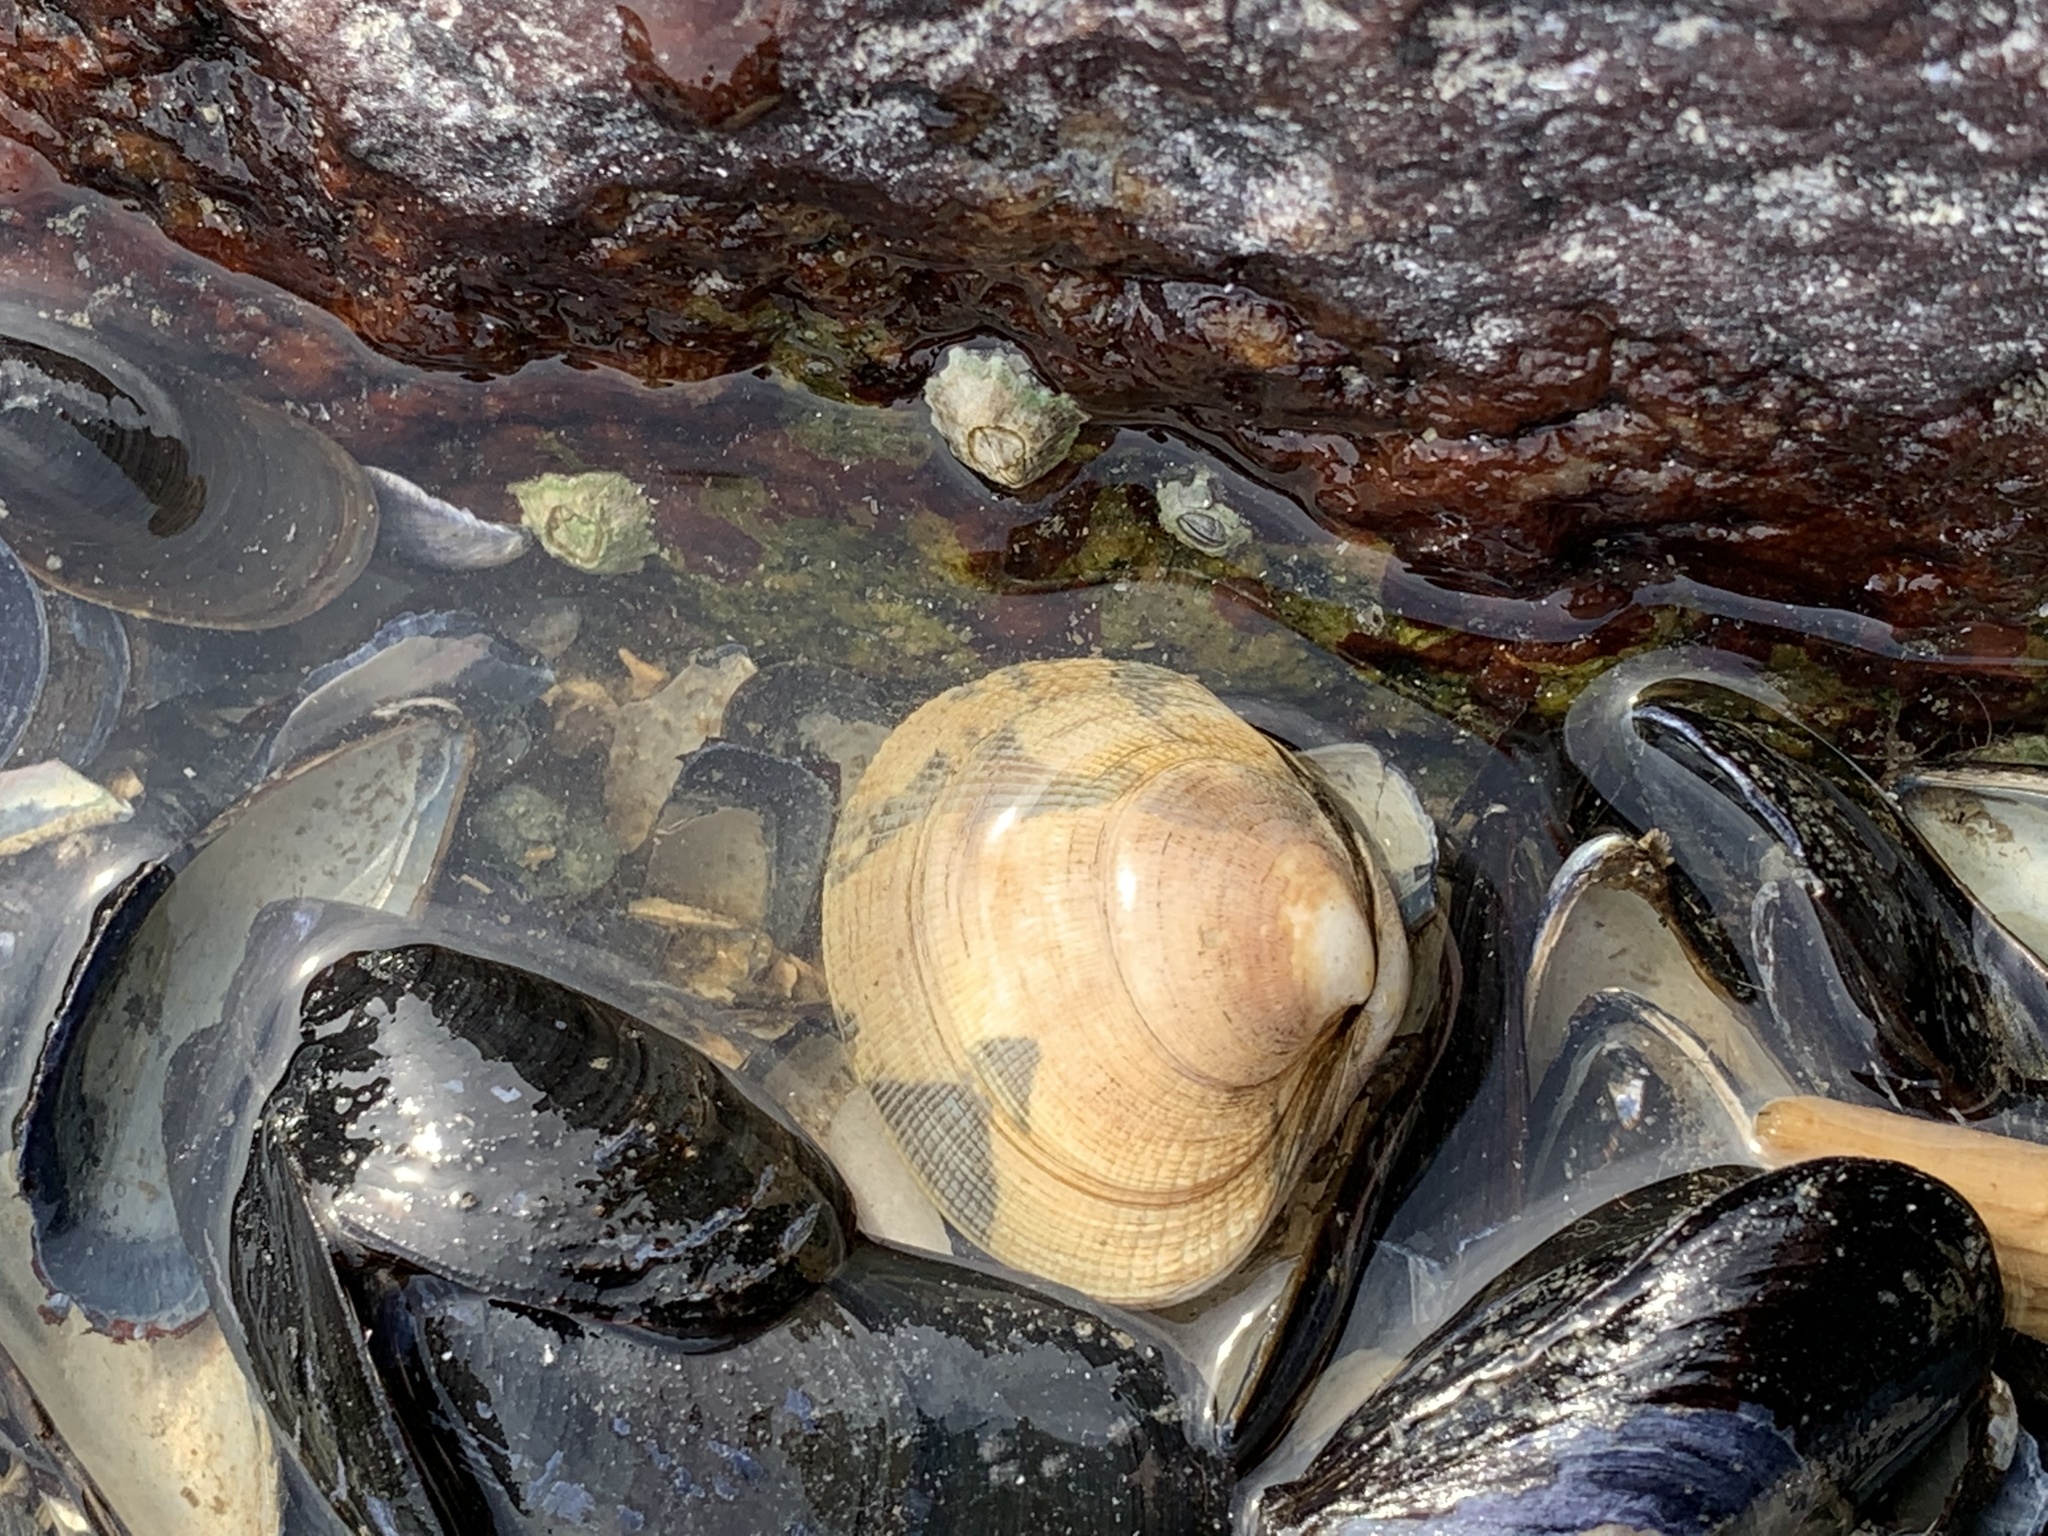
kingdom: Animalia
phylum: Mollusca
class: Bivalvia
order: Venerida
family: Veneridae
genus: Ruditapes
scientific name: Ruditapes philippinarum
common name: Manila clam
